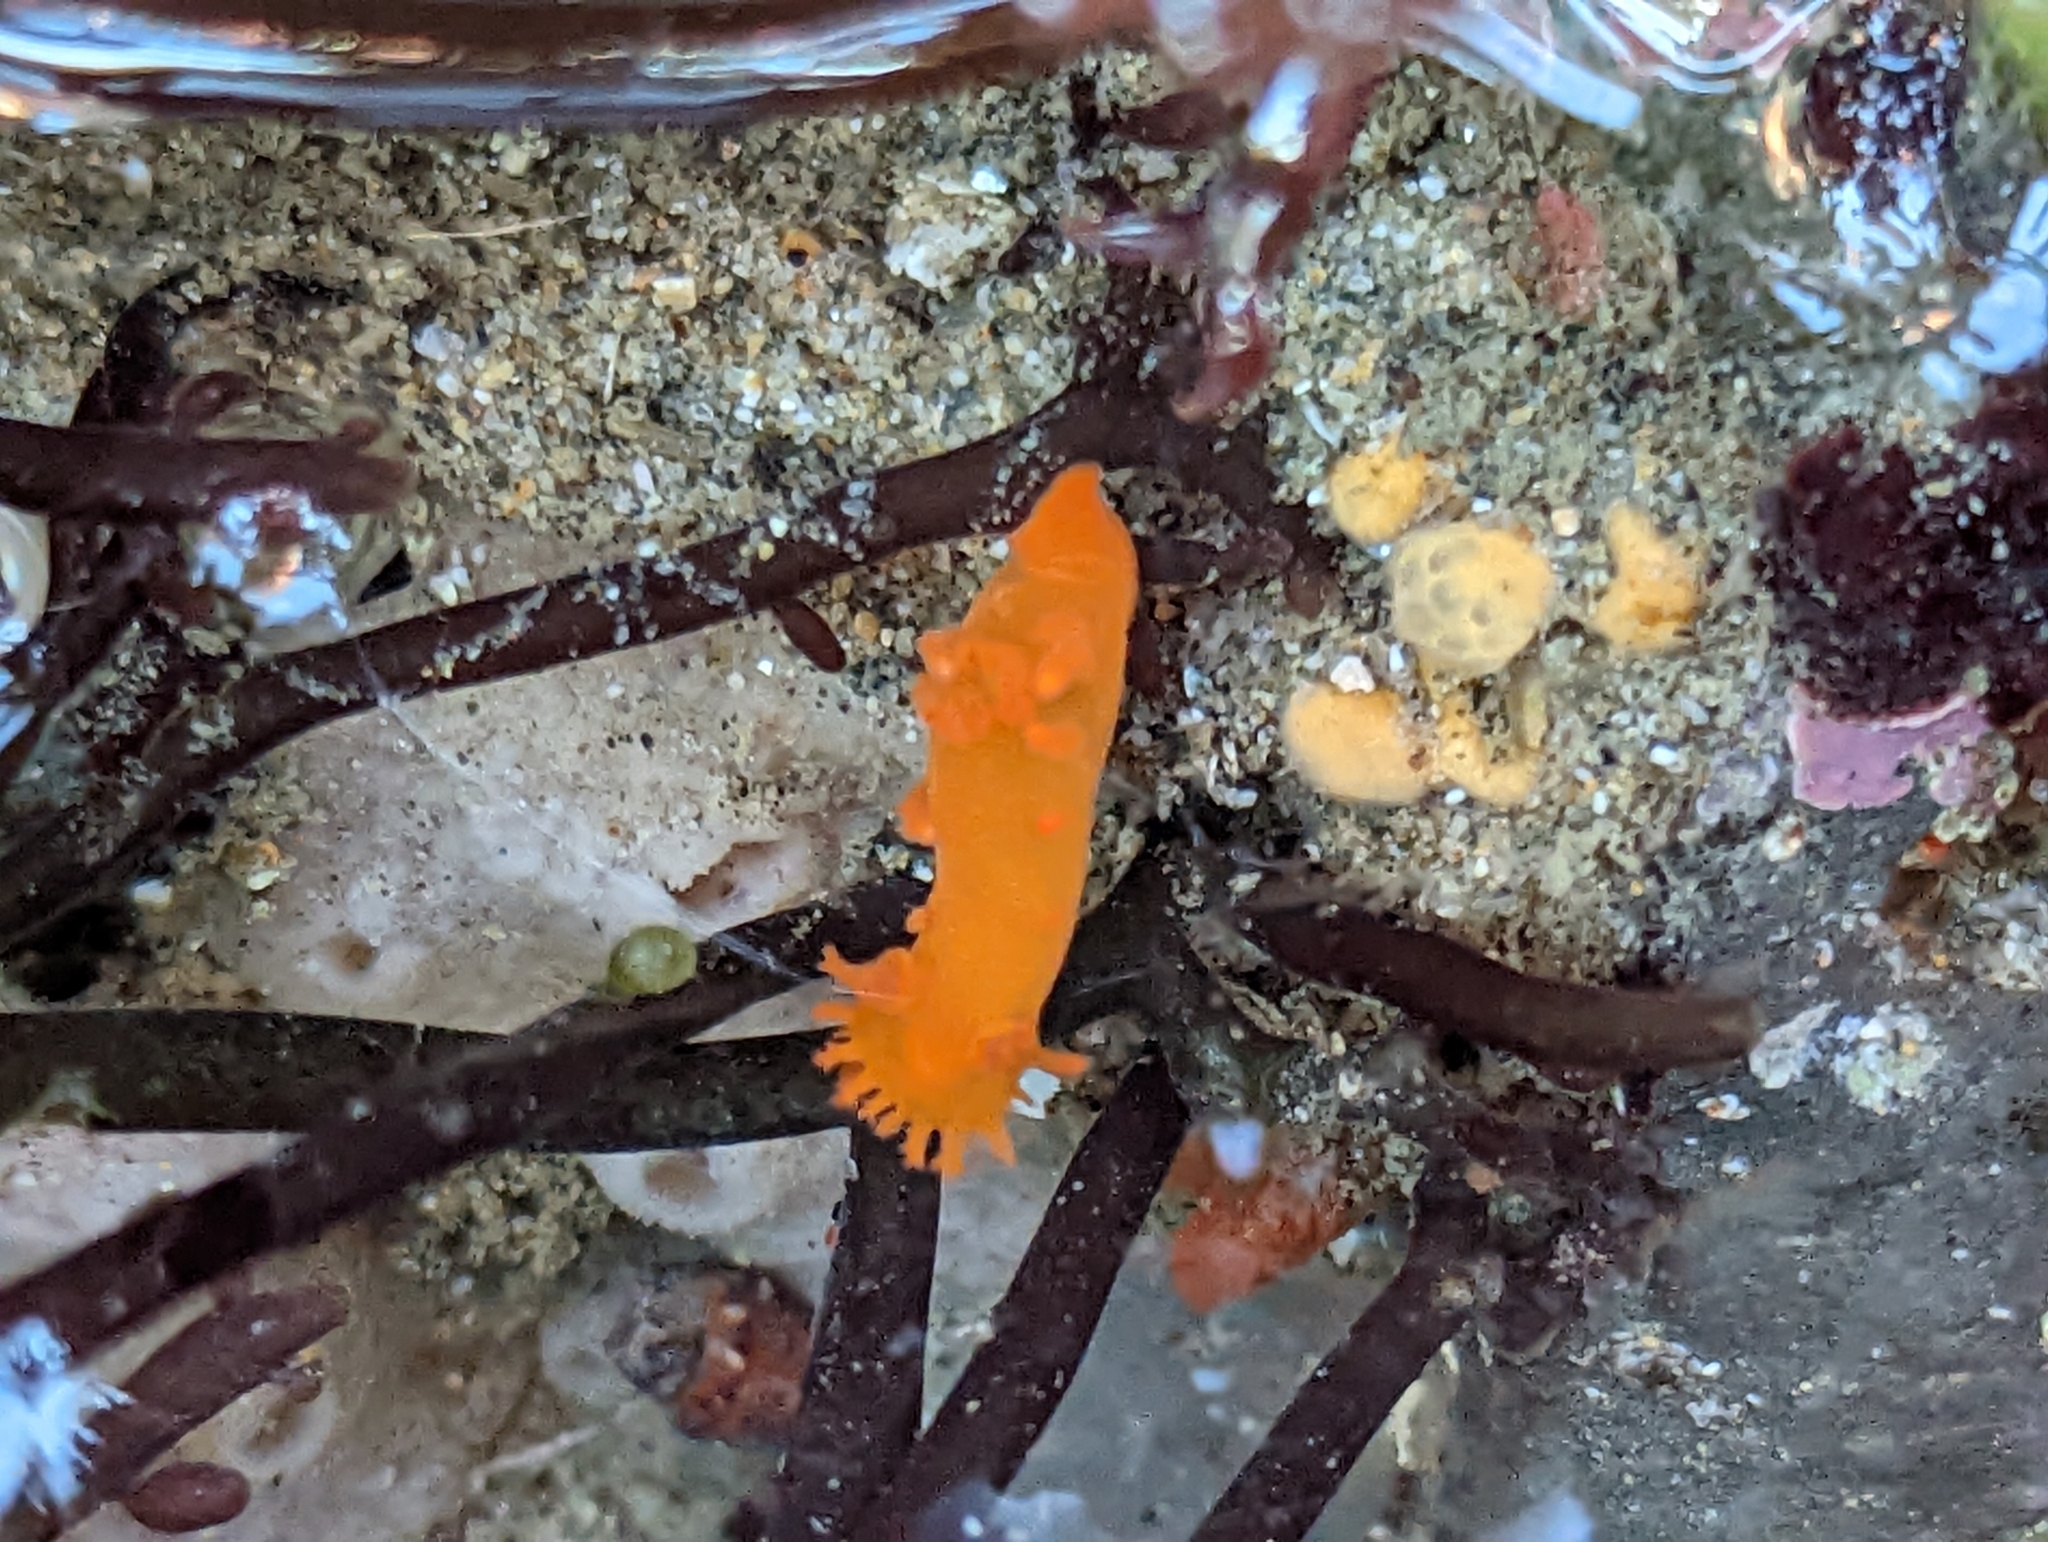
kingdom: Animalia
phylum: Mollusca
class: Gastropoda
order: Nudibranchia
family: Polyceridae
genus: Triopha
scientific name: Triopha maculata
